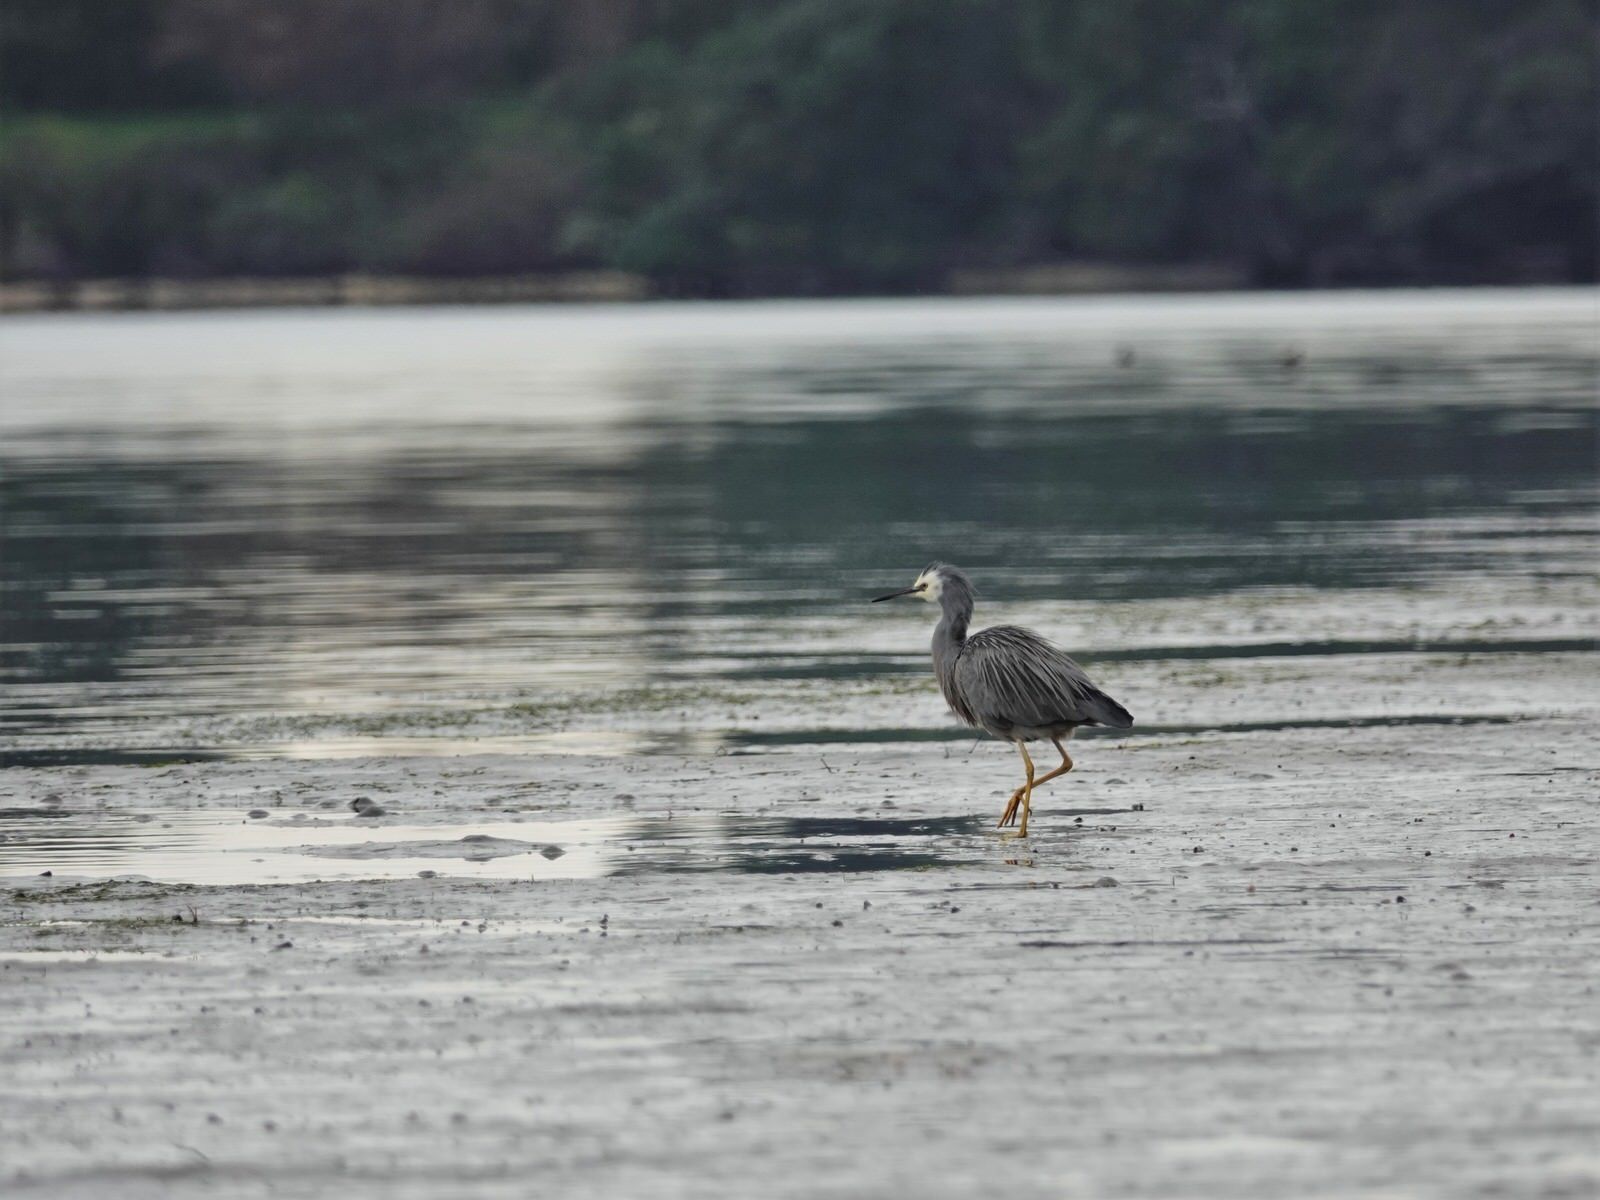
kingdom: Animalia
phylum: Chordata
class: Aves
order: Pelecaniformes
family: Ardeidae
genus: Egretta
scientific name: Egretta novaehollandiae
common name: White-faced heron
